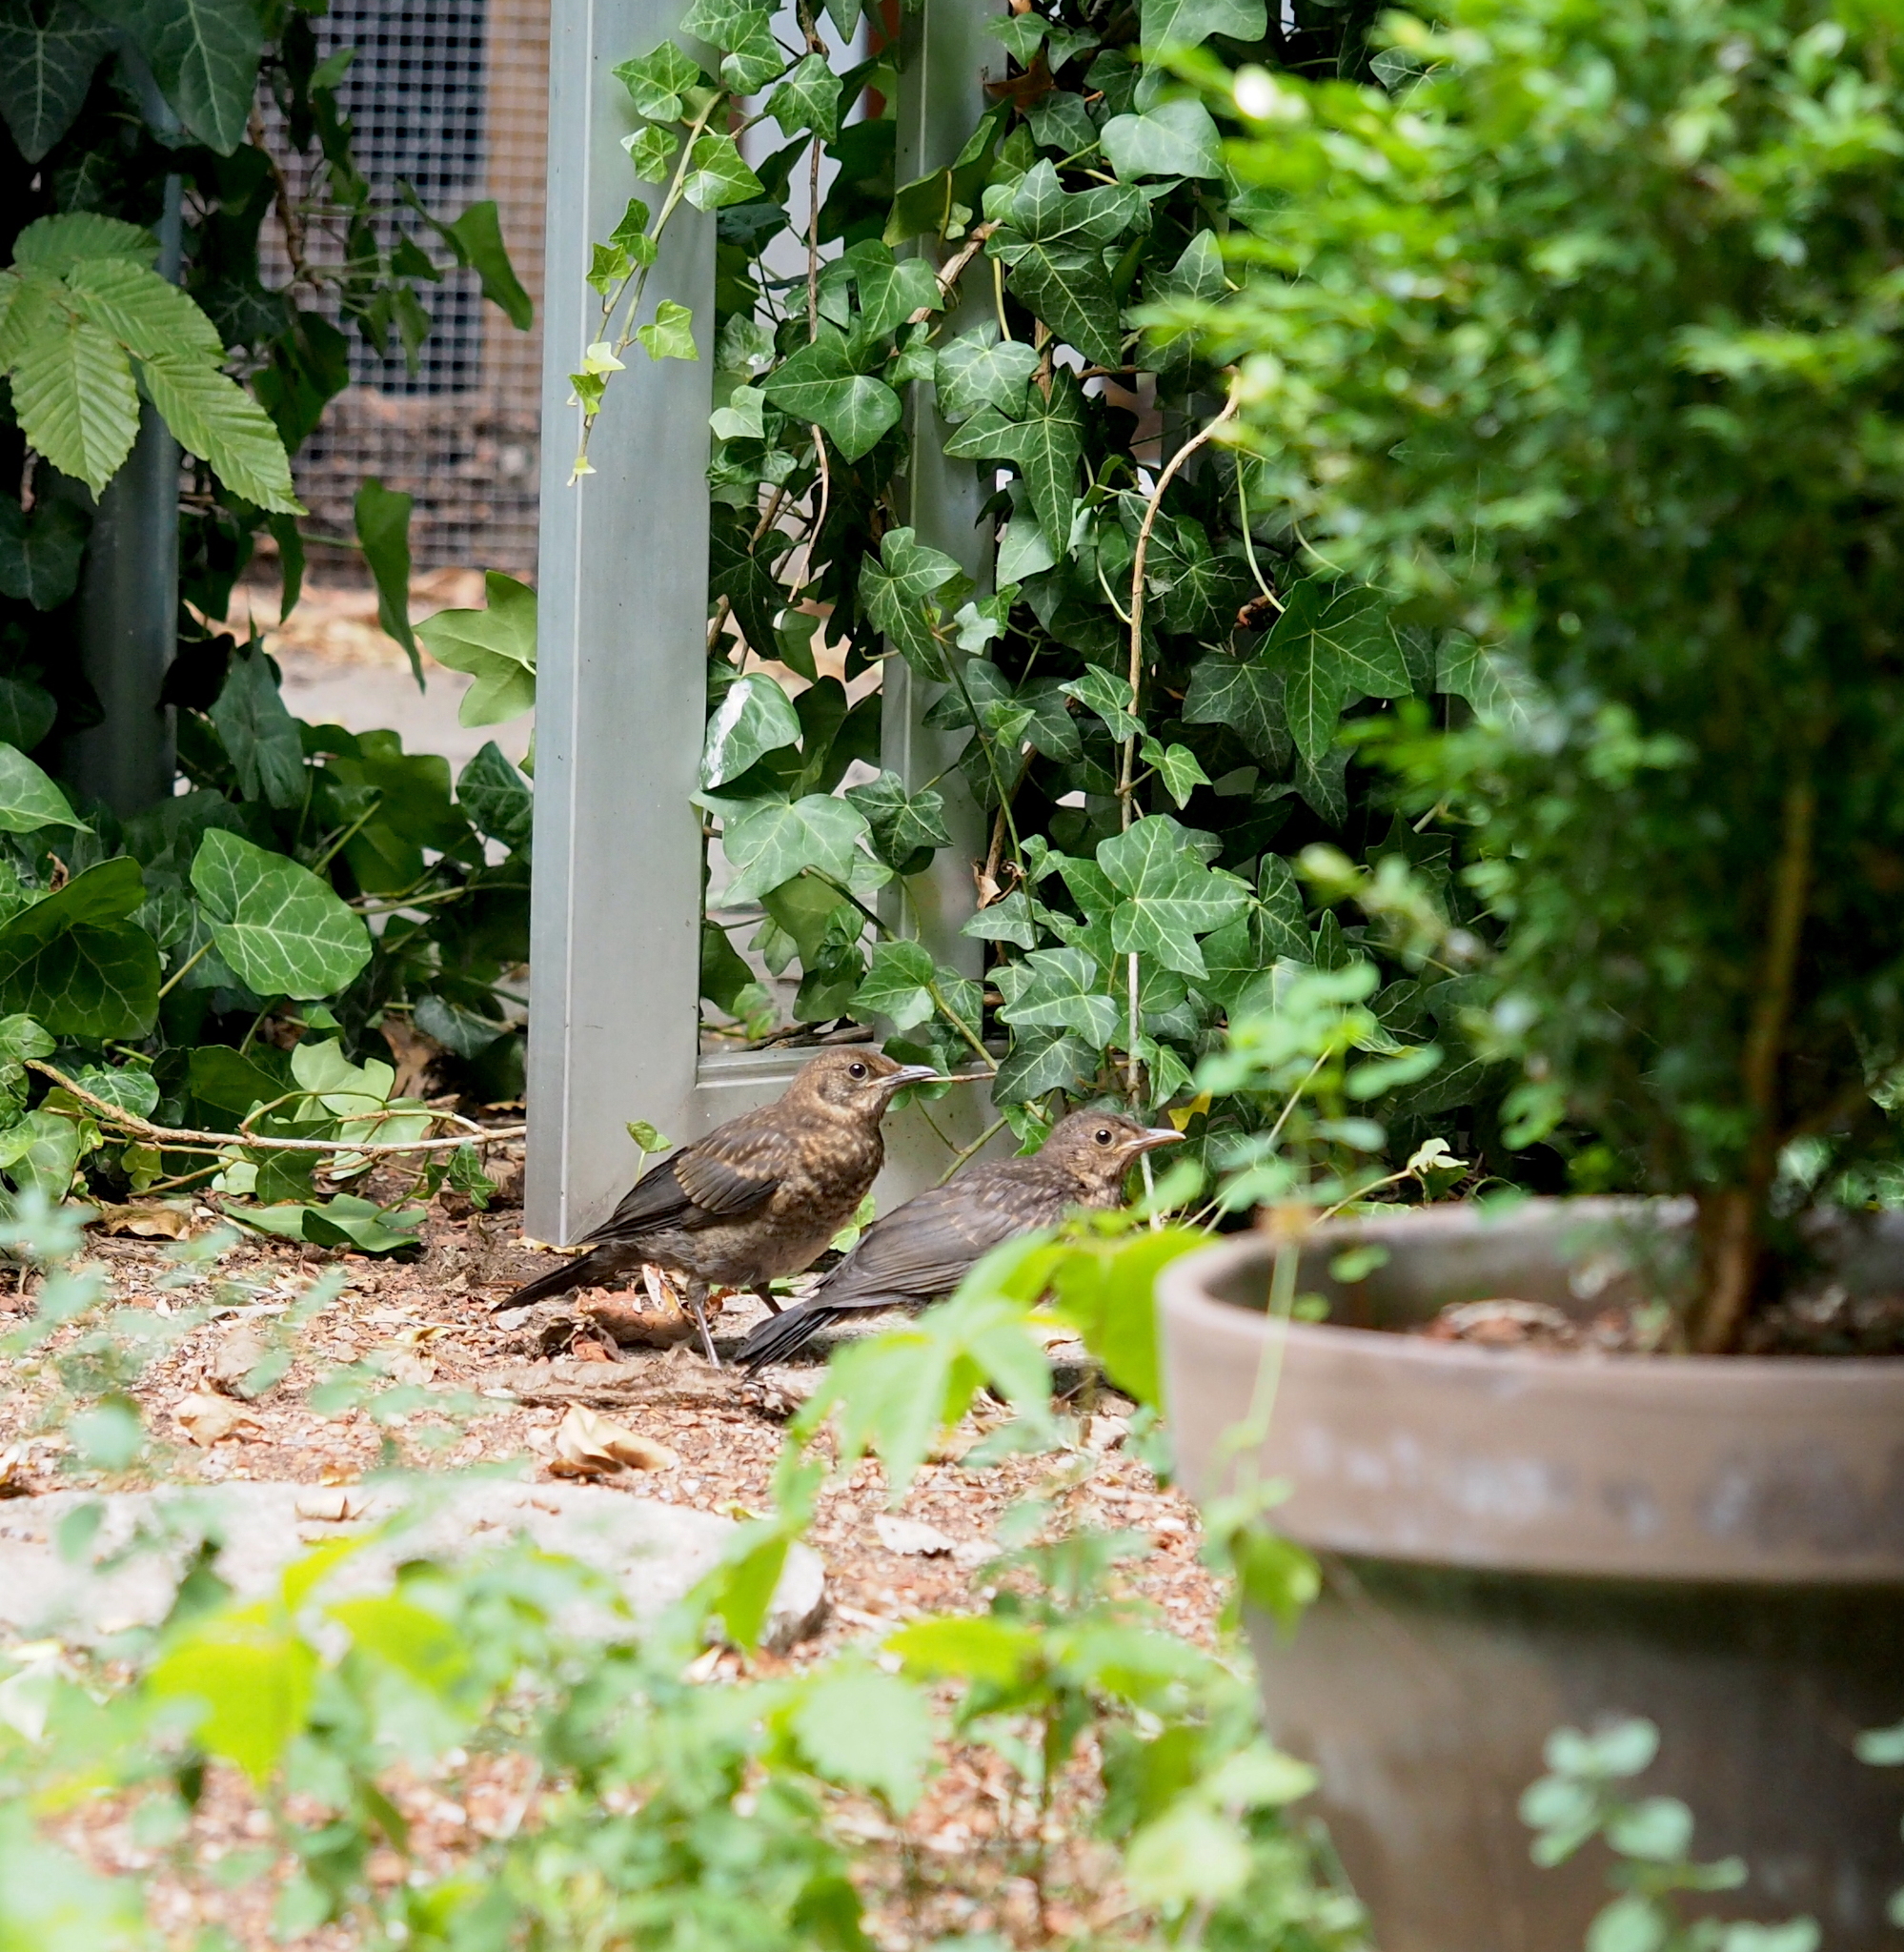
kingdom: Animalia
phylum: Chordata
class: Aves
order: Passeriformes
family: Turdidae
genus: Turdus
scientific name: Turdus merula
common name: Common blackbird
